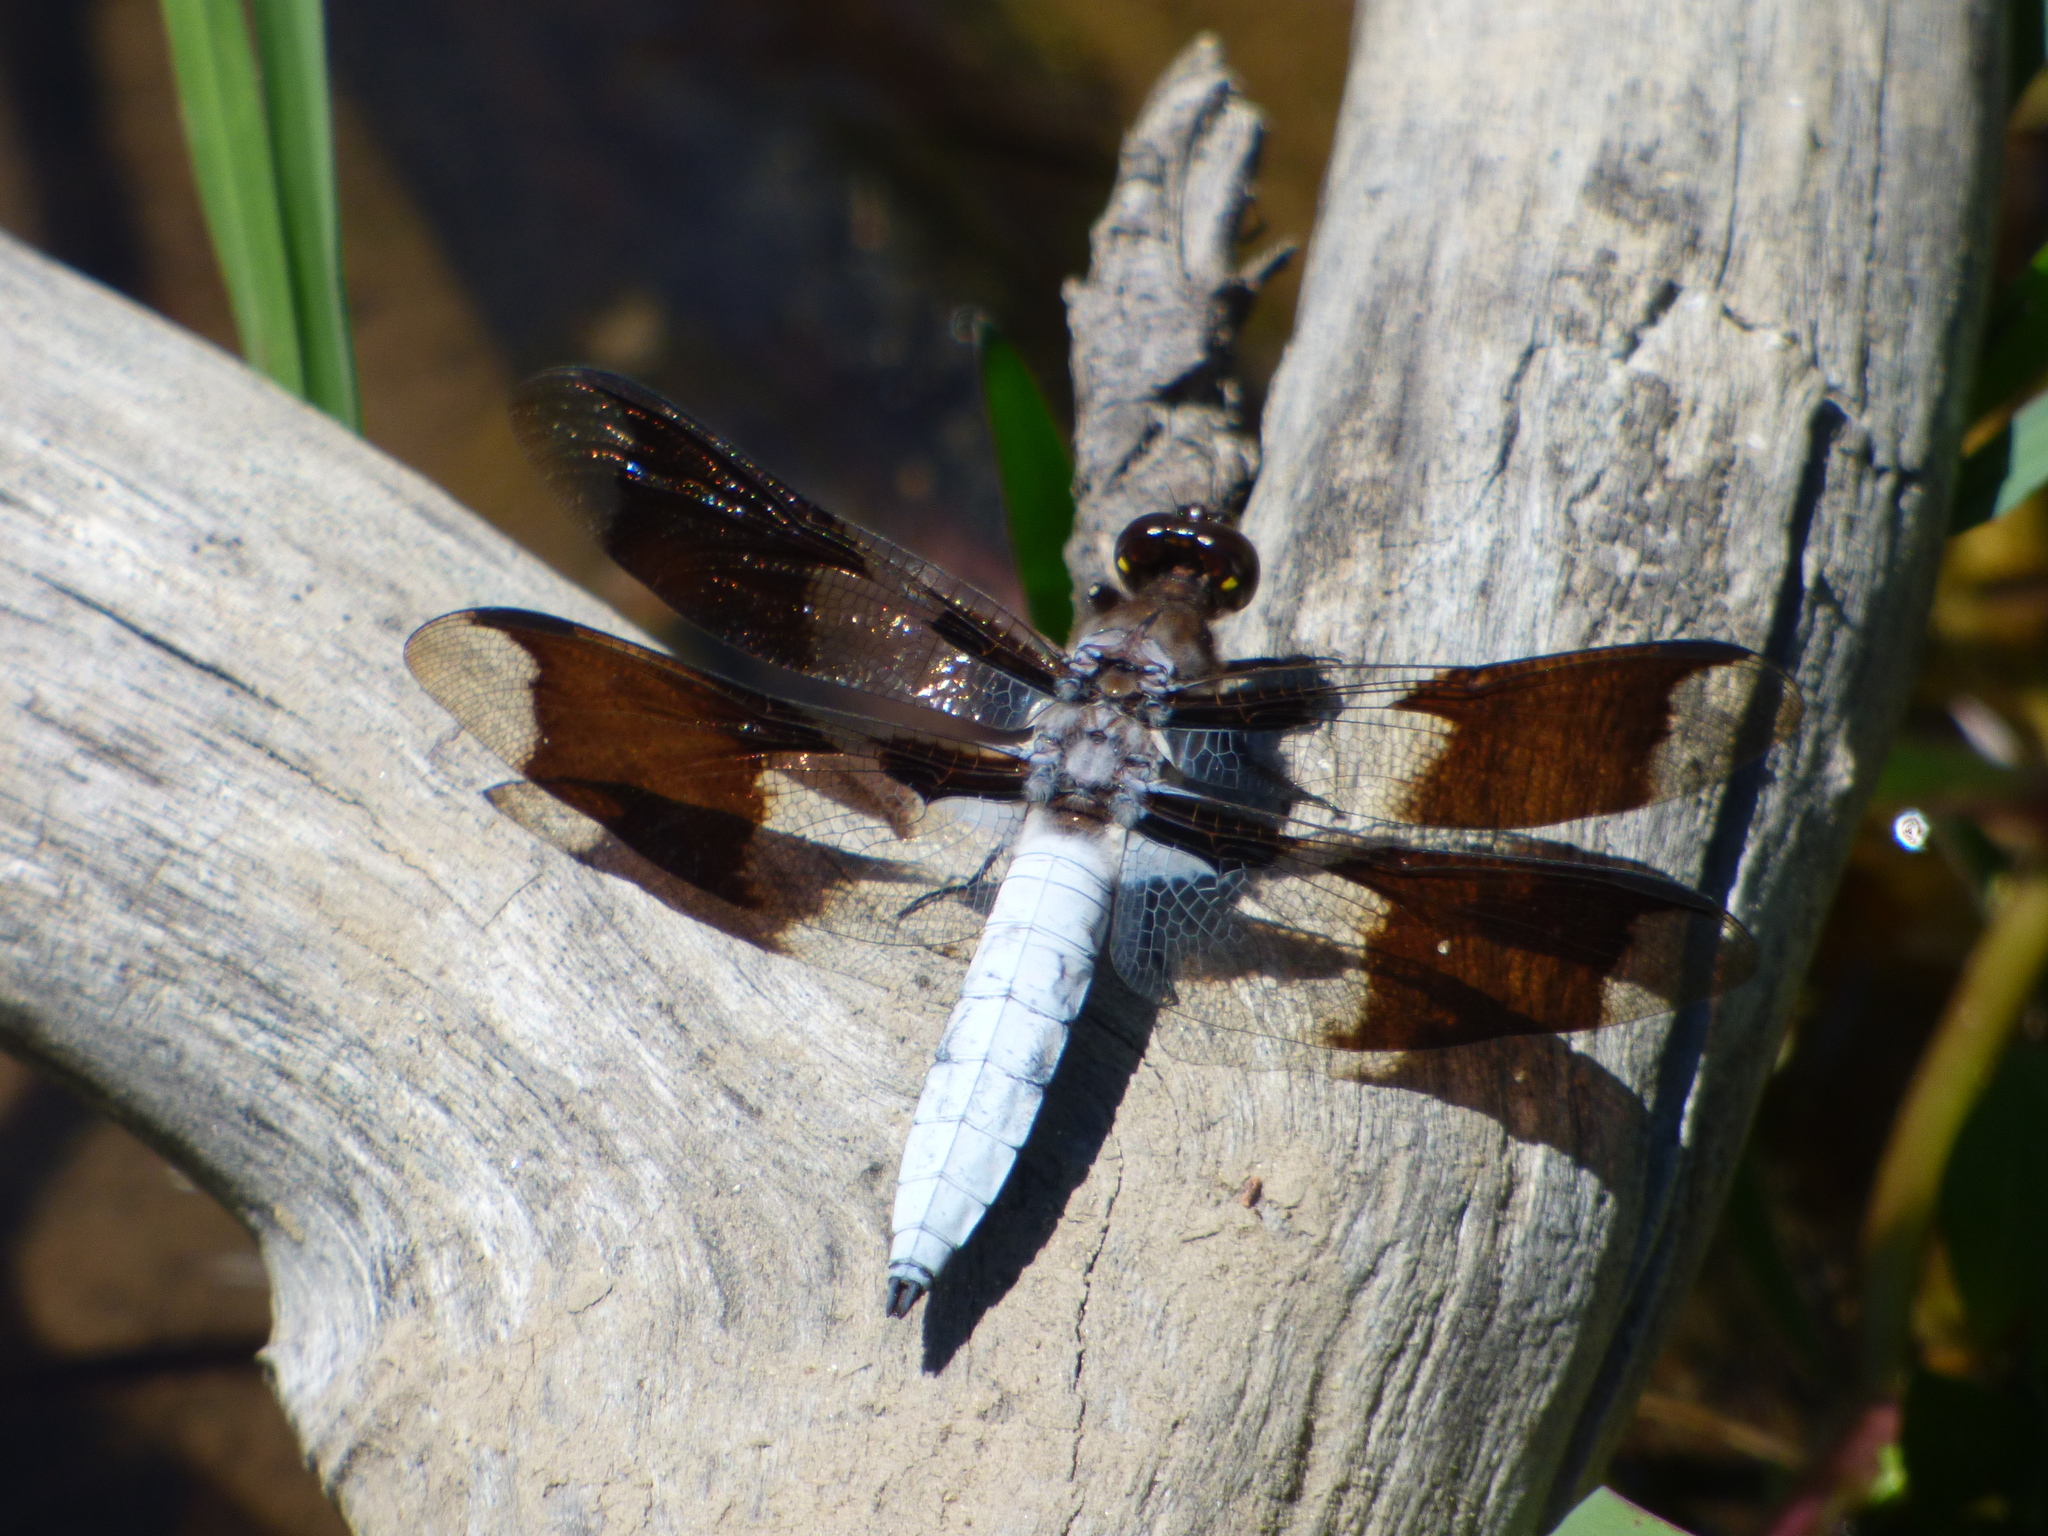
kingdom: Animalia
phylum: Arthropoda
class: Insecta
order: Odonata
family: Libellulidae
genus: Plathemis
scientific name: Plathemis lydia
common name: Common whitetail
